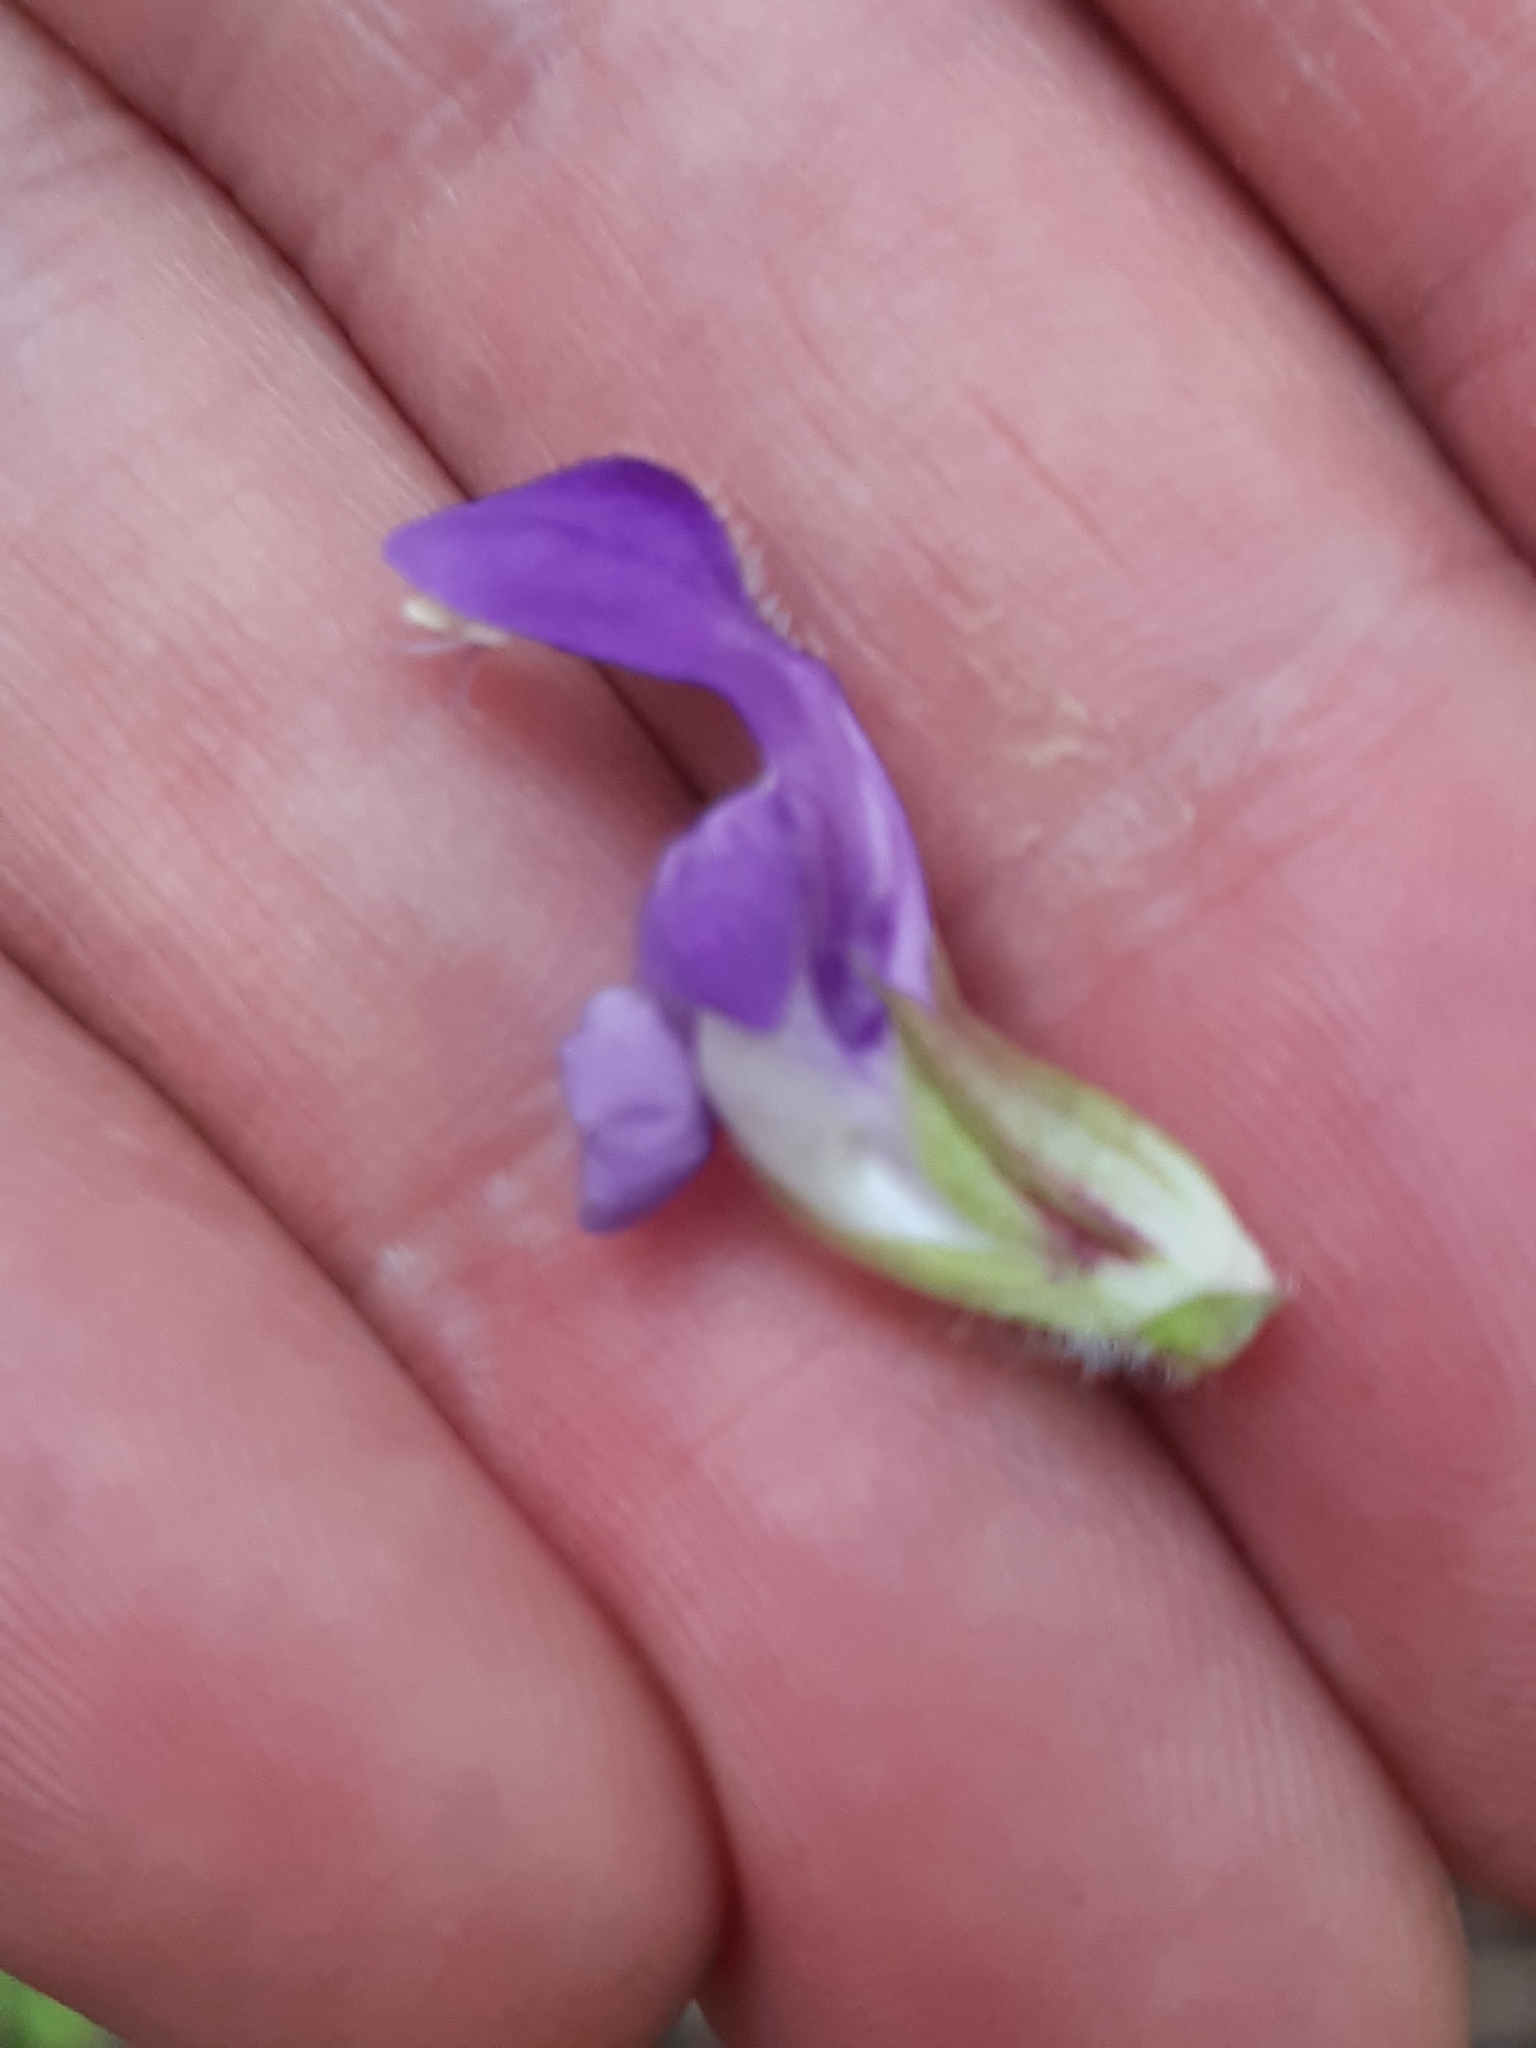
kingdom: Plantae
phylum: Tracheophyta
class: Magnoliopsida
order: Lamiales
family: Lamiaceae
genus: Prunella
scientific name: Prunella grandiflora
